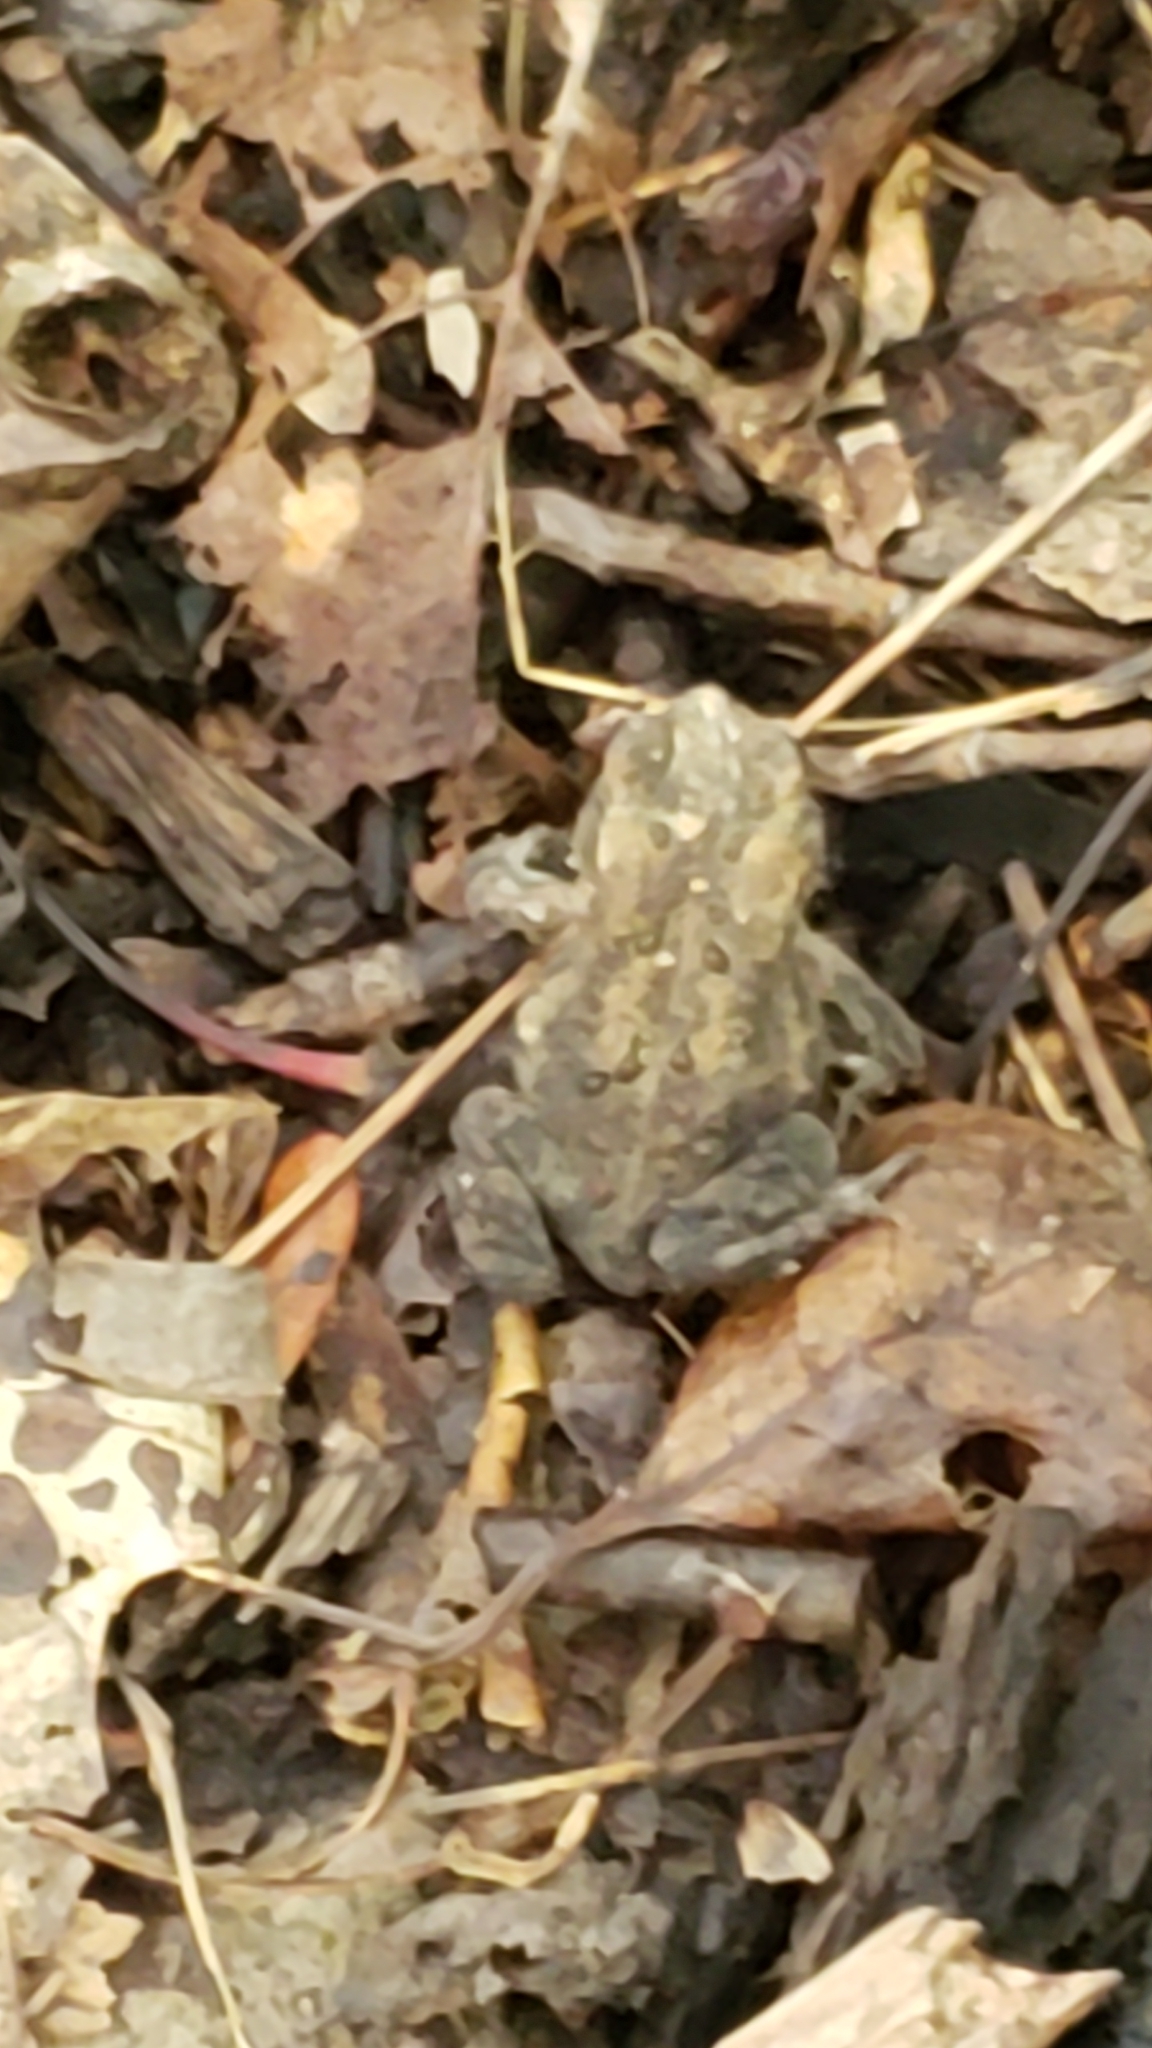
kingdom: Animalia
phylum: Chordata
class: Amphibia
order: Anura
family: Bufonidae
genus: Anaxyrus
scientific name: Anaxyrus americanus
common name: American toad
